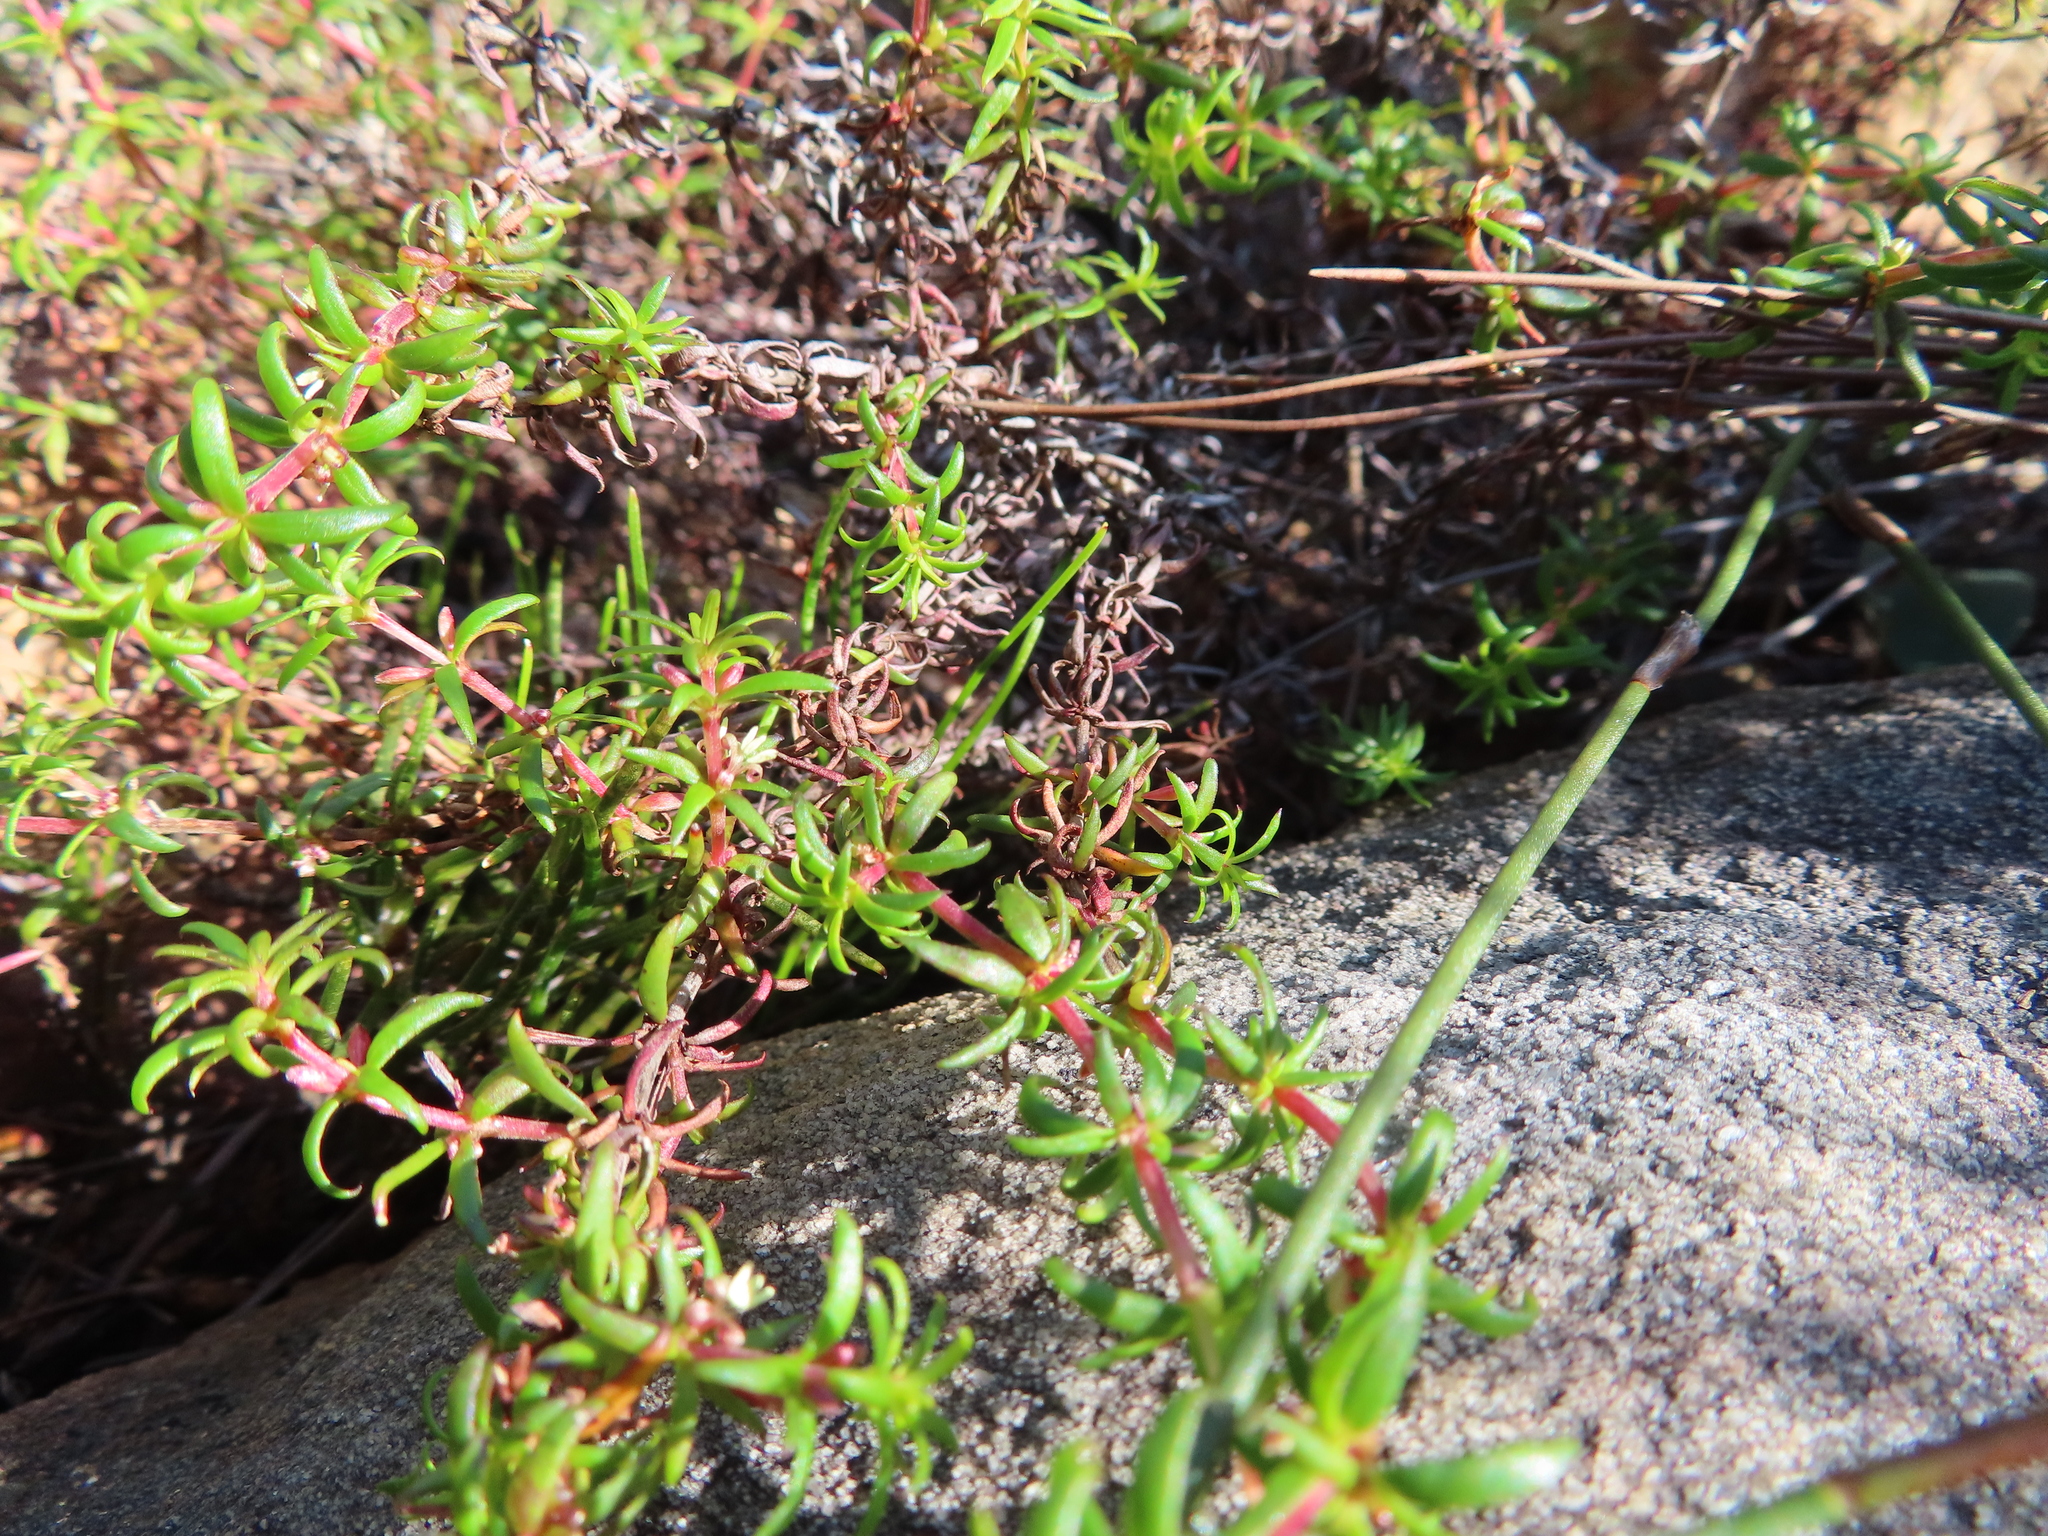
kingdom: Plantae
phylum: Tracheophyta
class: Magnoliopsida
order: Gentianales
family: Rubiaceae
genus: Anthospermum
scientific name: Anthospermum galioides
